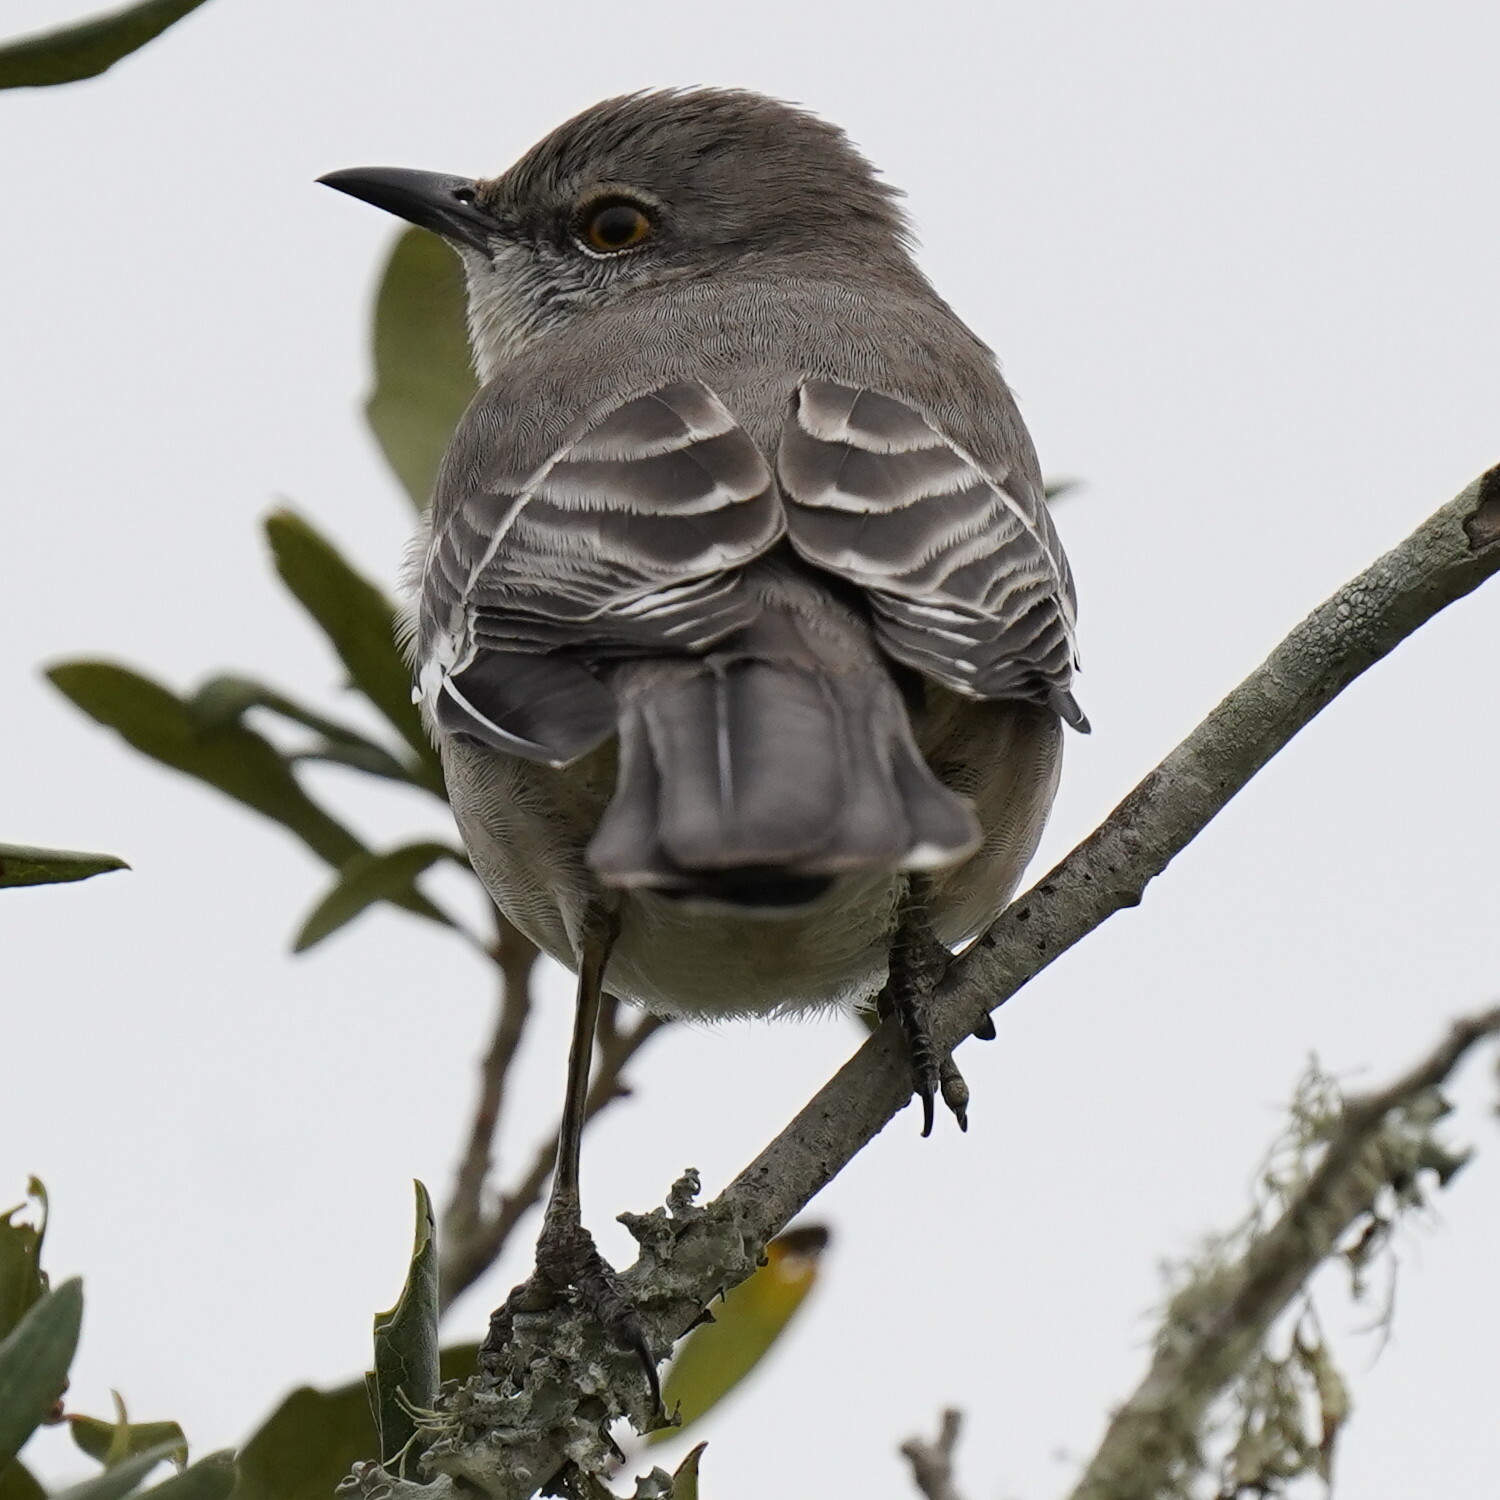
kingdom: Animalia
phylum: Chordata
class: Aves
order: Passeriformes
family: Mimidae
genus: Mimus
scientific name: Mimus polyglottos
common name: Northern mockingbird
